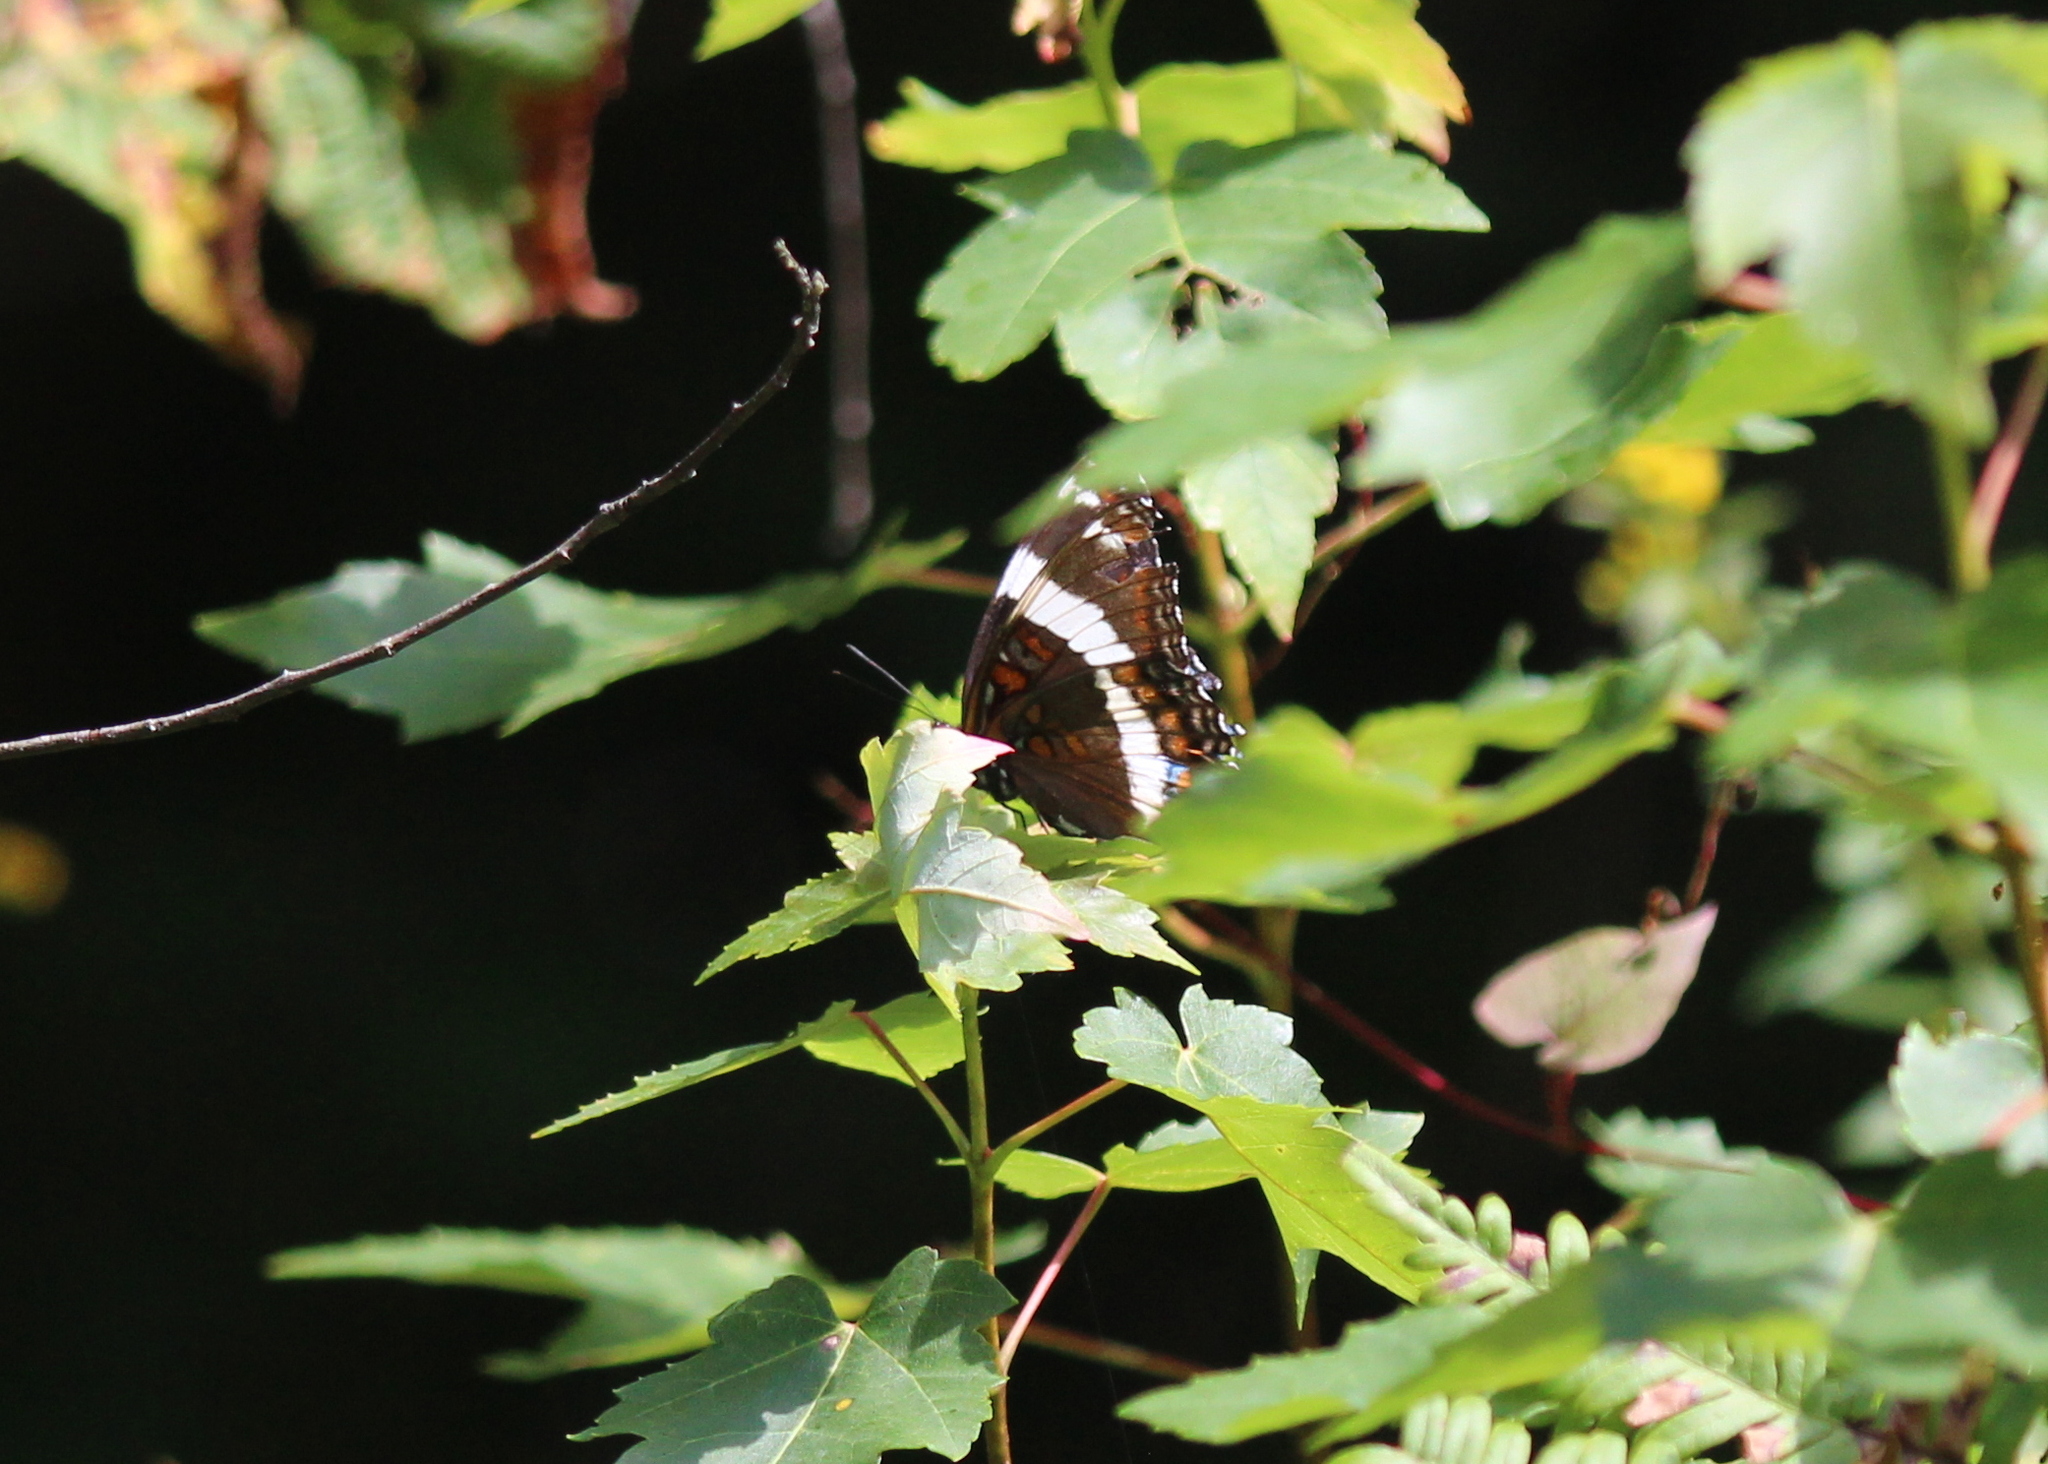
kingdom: Animalia
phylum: Arthropoda
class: Insecta
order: Lepidoptera
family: Nymphalidae
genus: Limenitis
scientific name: Limenitis arthemis
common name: Red-spotted admiral
